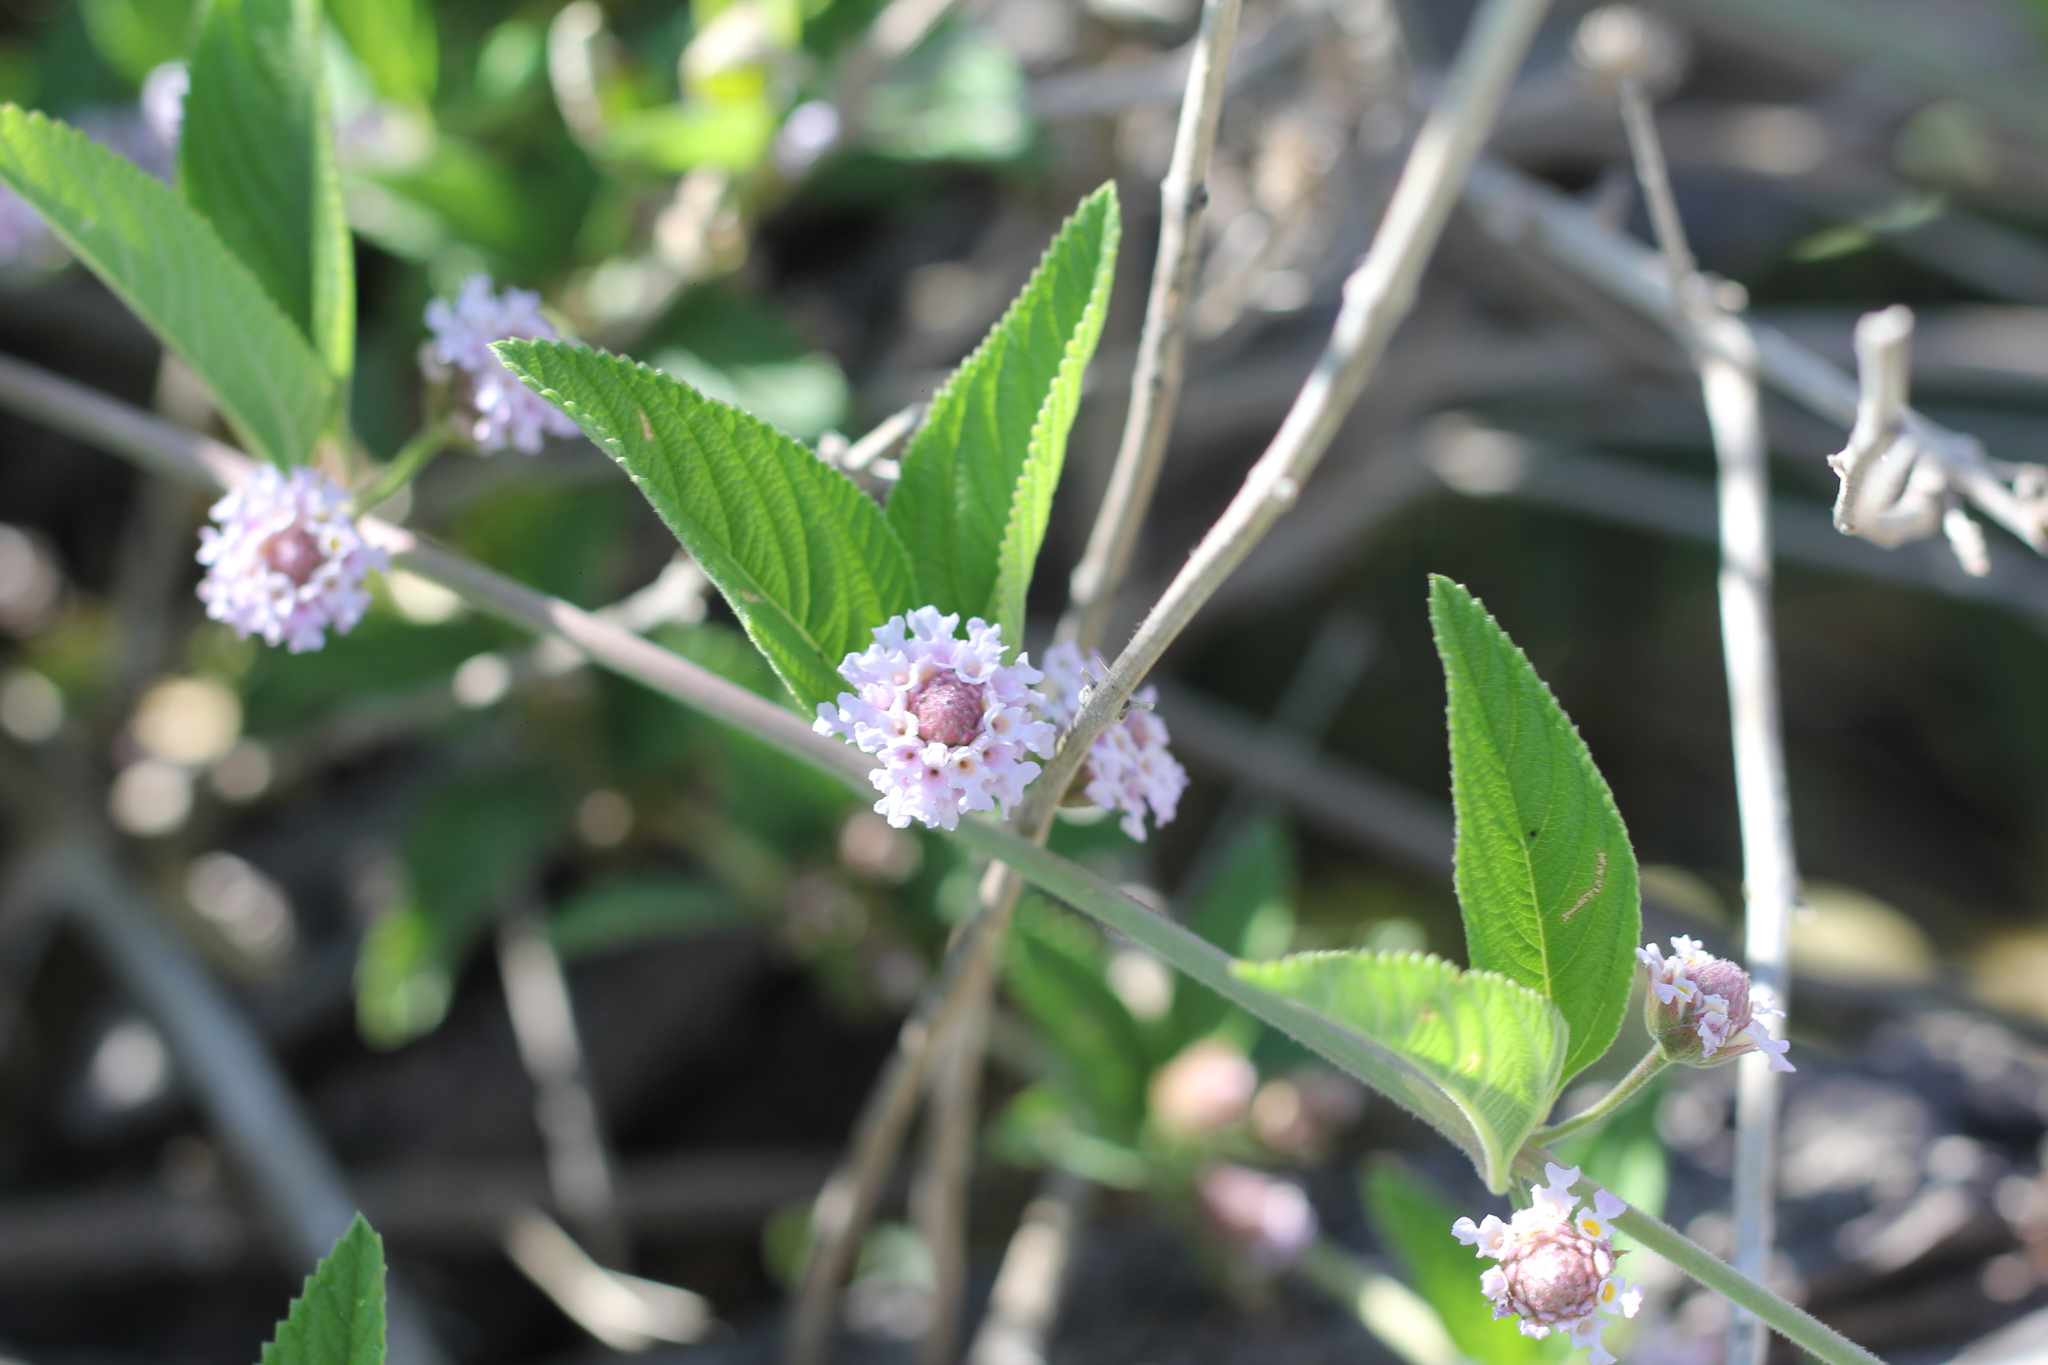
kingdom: Plantae
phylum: Tracheophyta
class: Magnoliopsida
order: Lamiales
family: Verbenaceae
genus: Lippia
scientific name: Lippia alba
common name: Bushy matgrass
